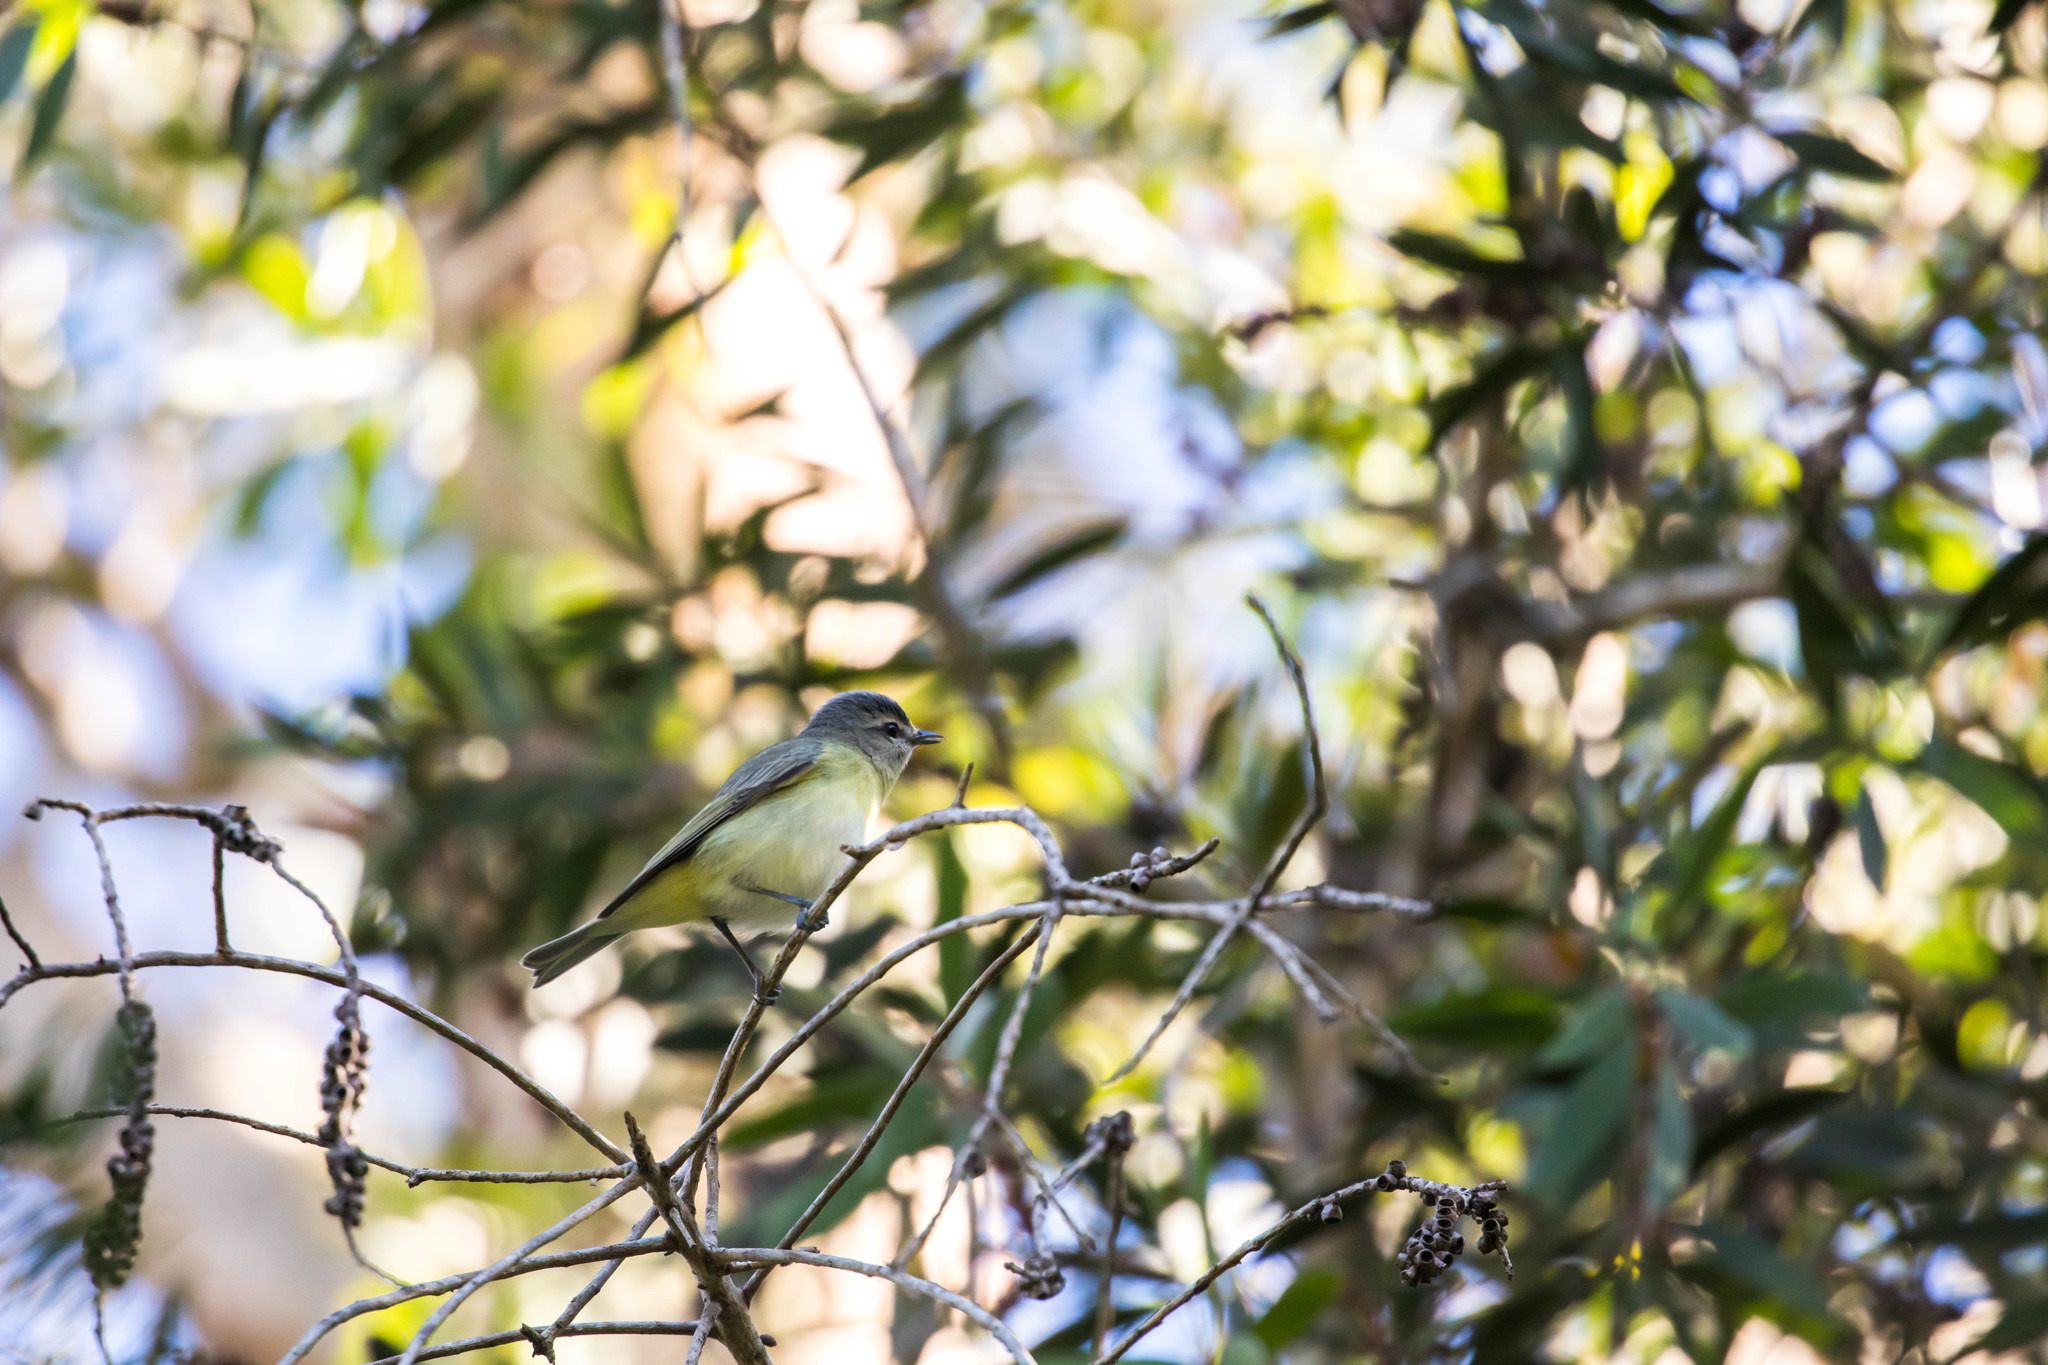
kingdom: Animalia
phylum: Chordata
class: Aves
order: Passeriformes
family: Vireonidae
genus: Vireo
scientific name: Vireo philadelphicus
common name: Philadelphia vireo
